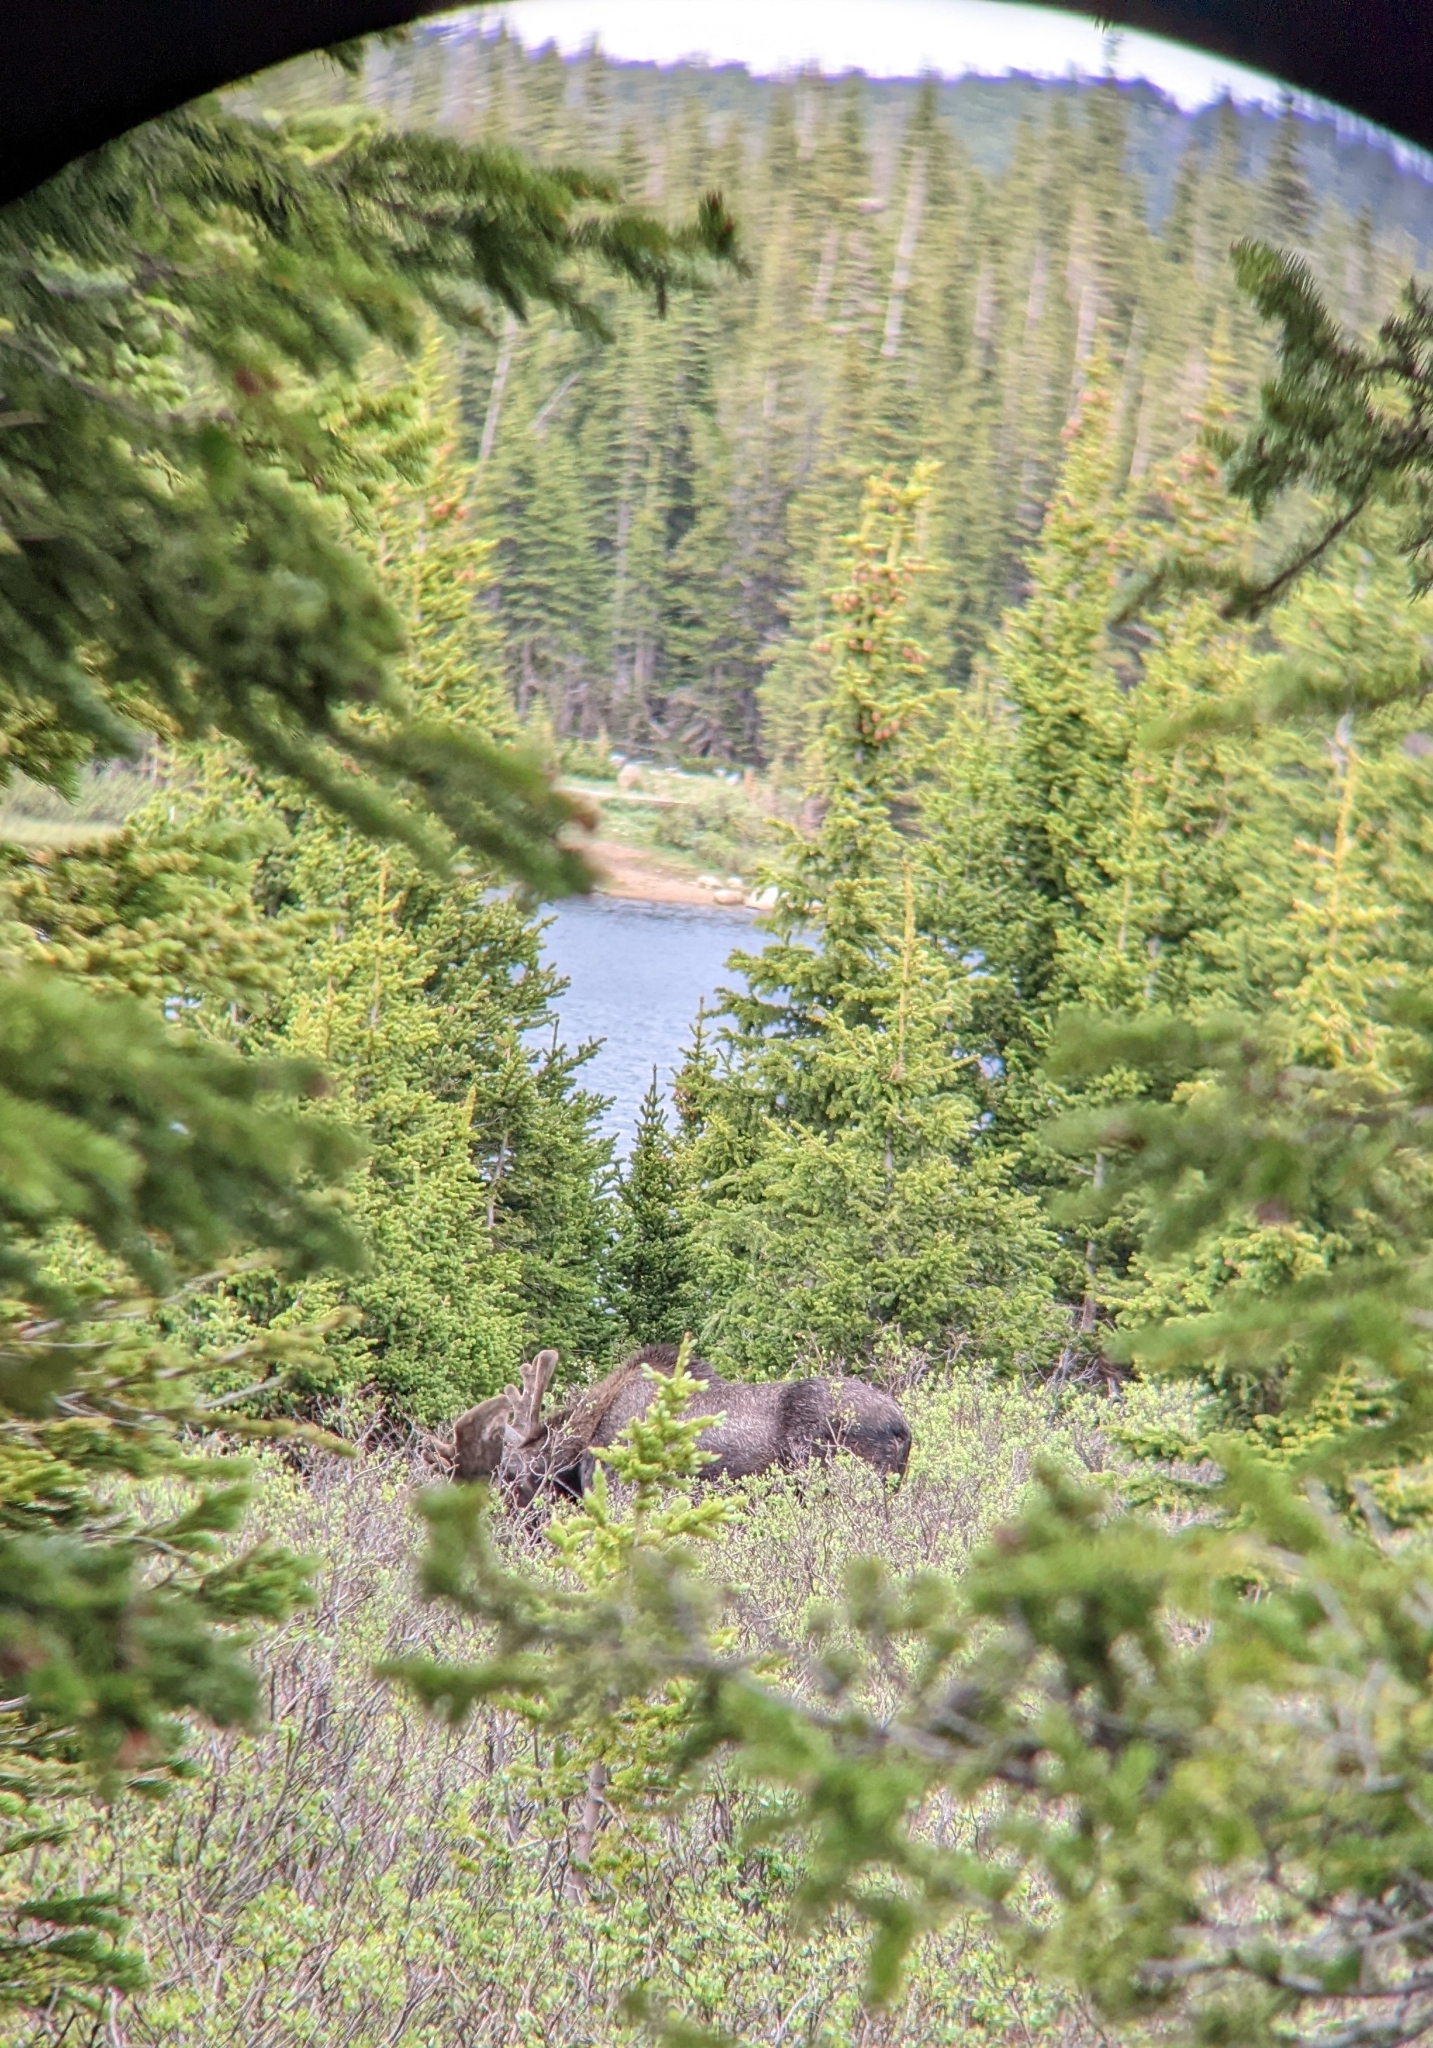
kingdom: Animalia
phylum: Chordata
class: Mammalia
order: Artiodactyla
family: Cervidae
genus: Alces
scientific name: Alces alces
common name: Moose
